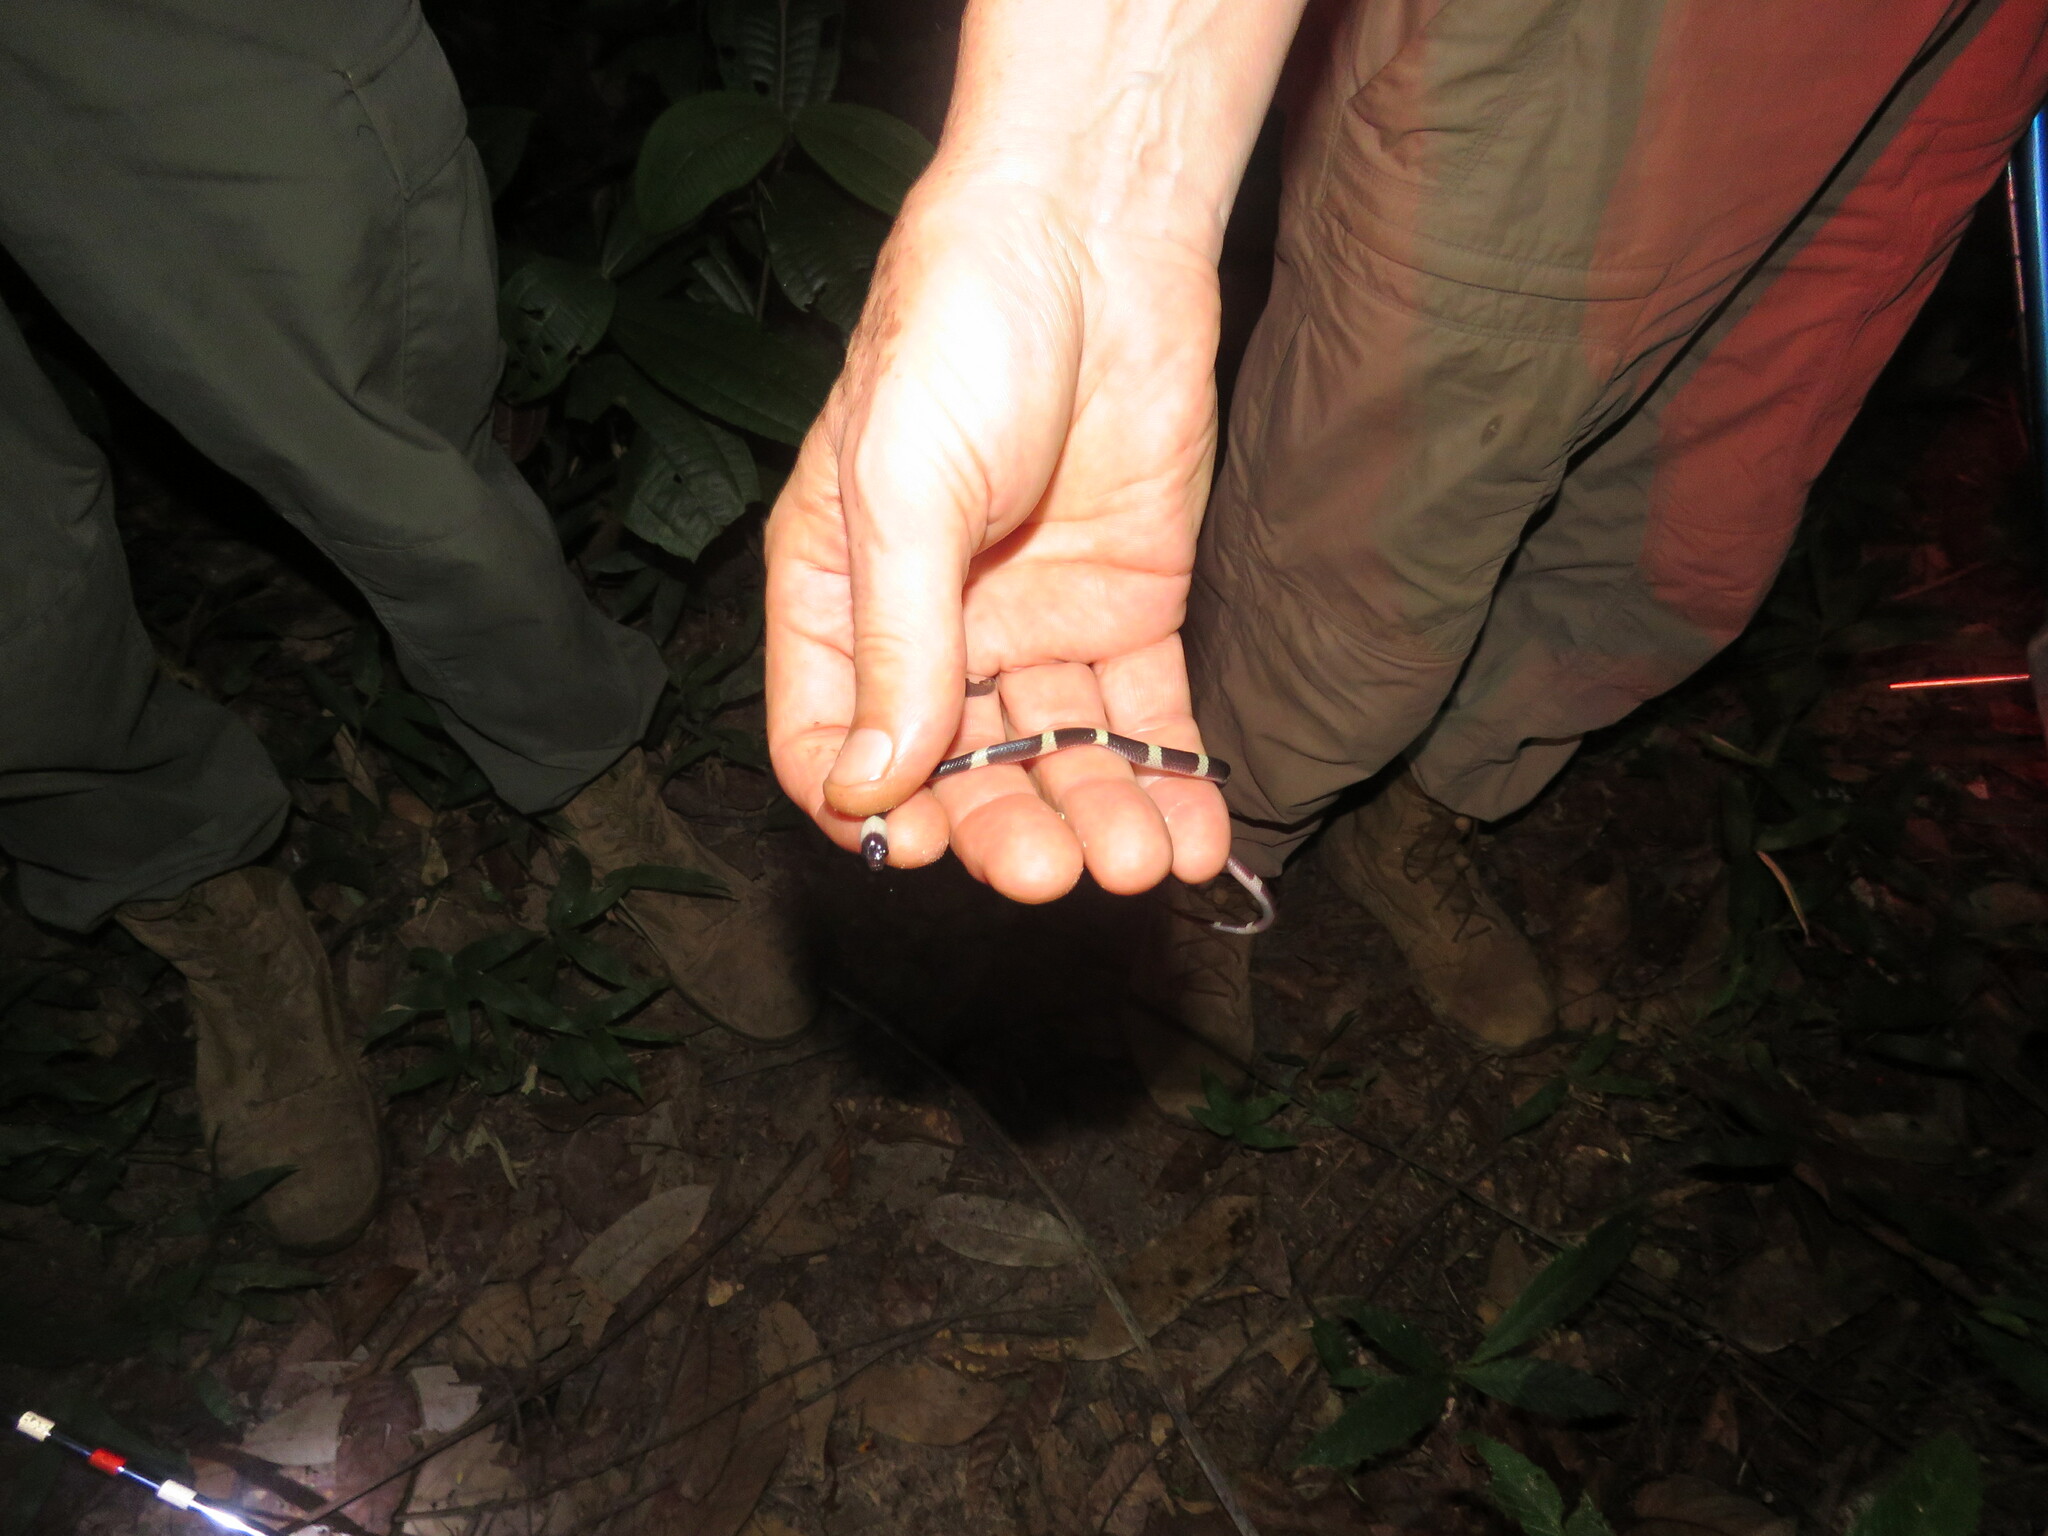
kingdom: Animalia
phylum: Chordata
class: Squamata
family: Colubridae
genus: Oxyrhopus
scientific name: Oxyrhopus petolarius
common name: Forest flame snake
